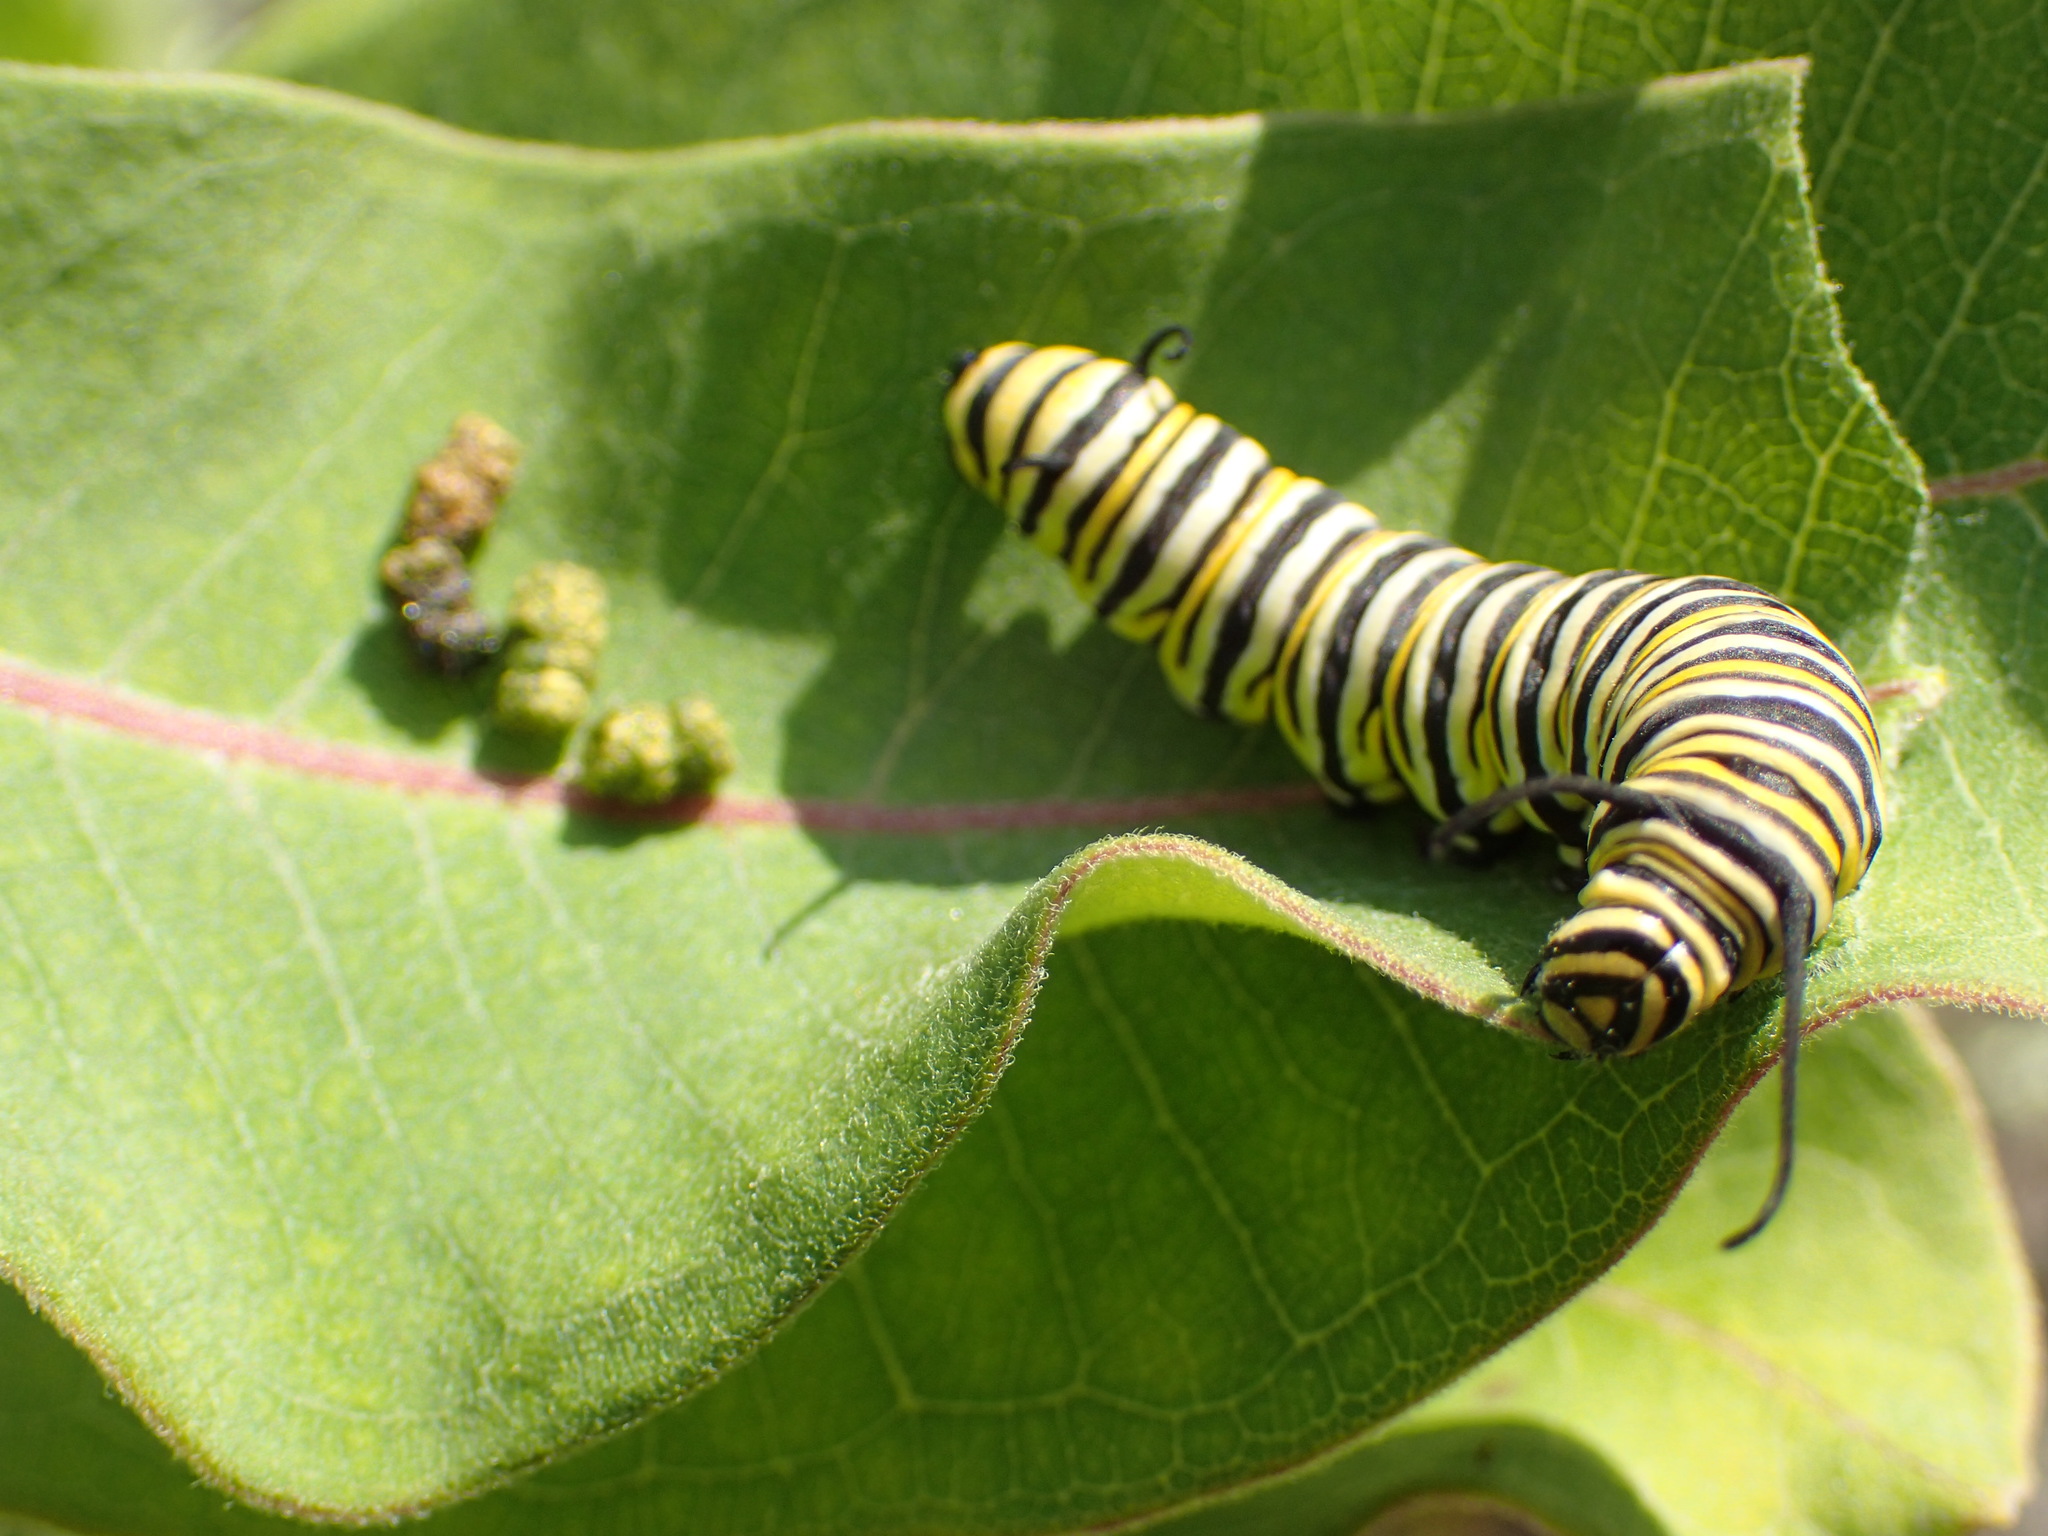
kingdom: Animalia
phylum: Arthropoda
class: Insecta
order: Lepidoptera
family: Nymphalidae
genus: Danaus
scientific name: Danaus plexippus
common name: Monarch
